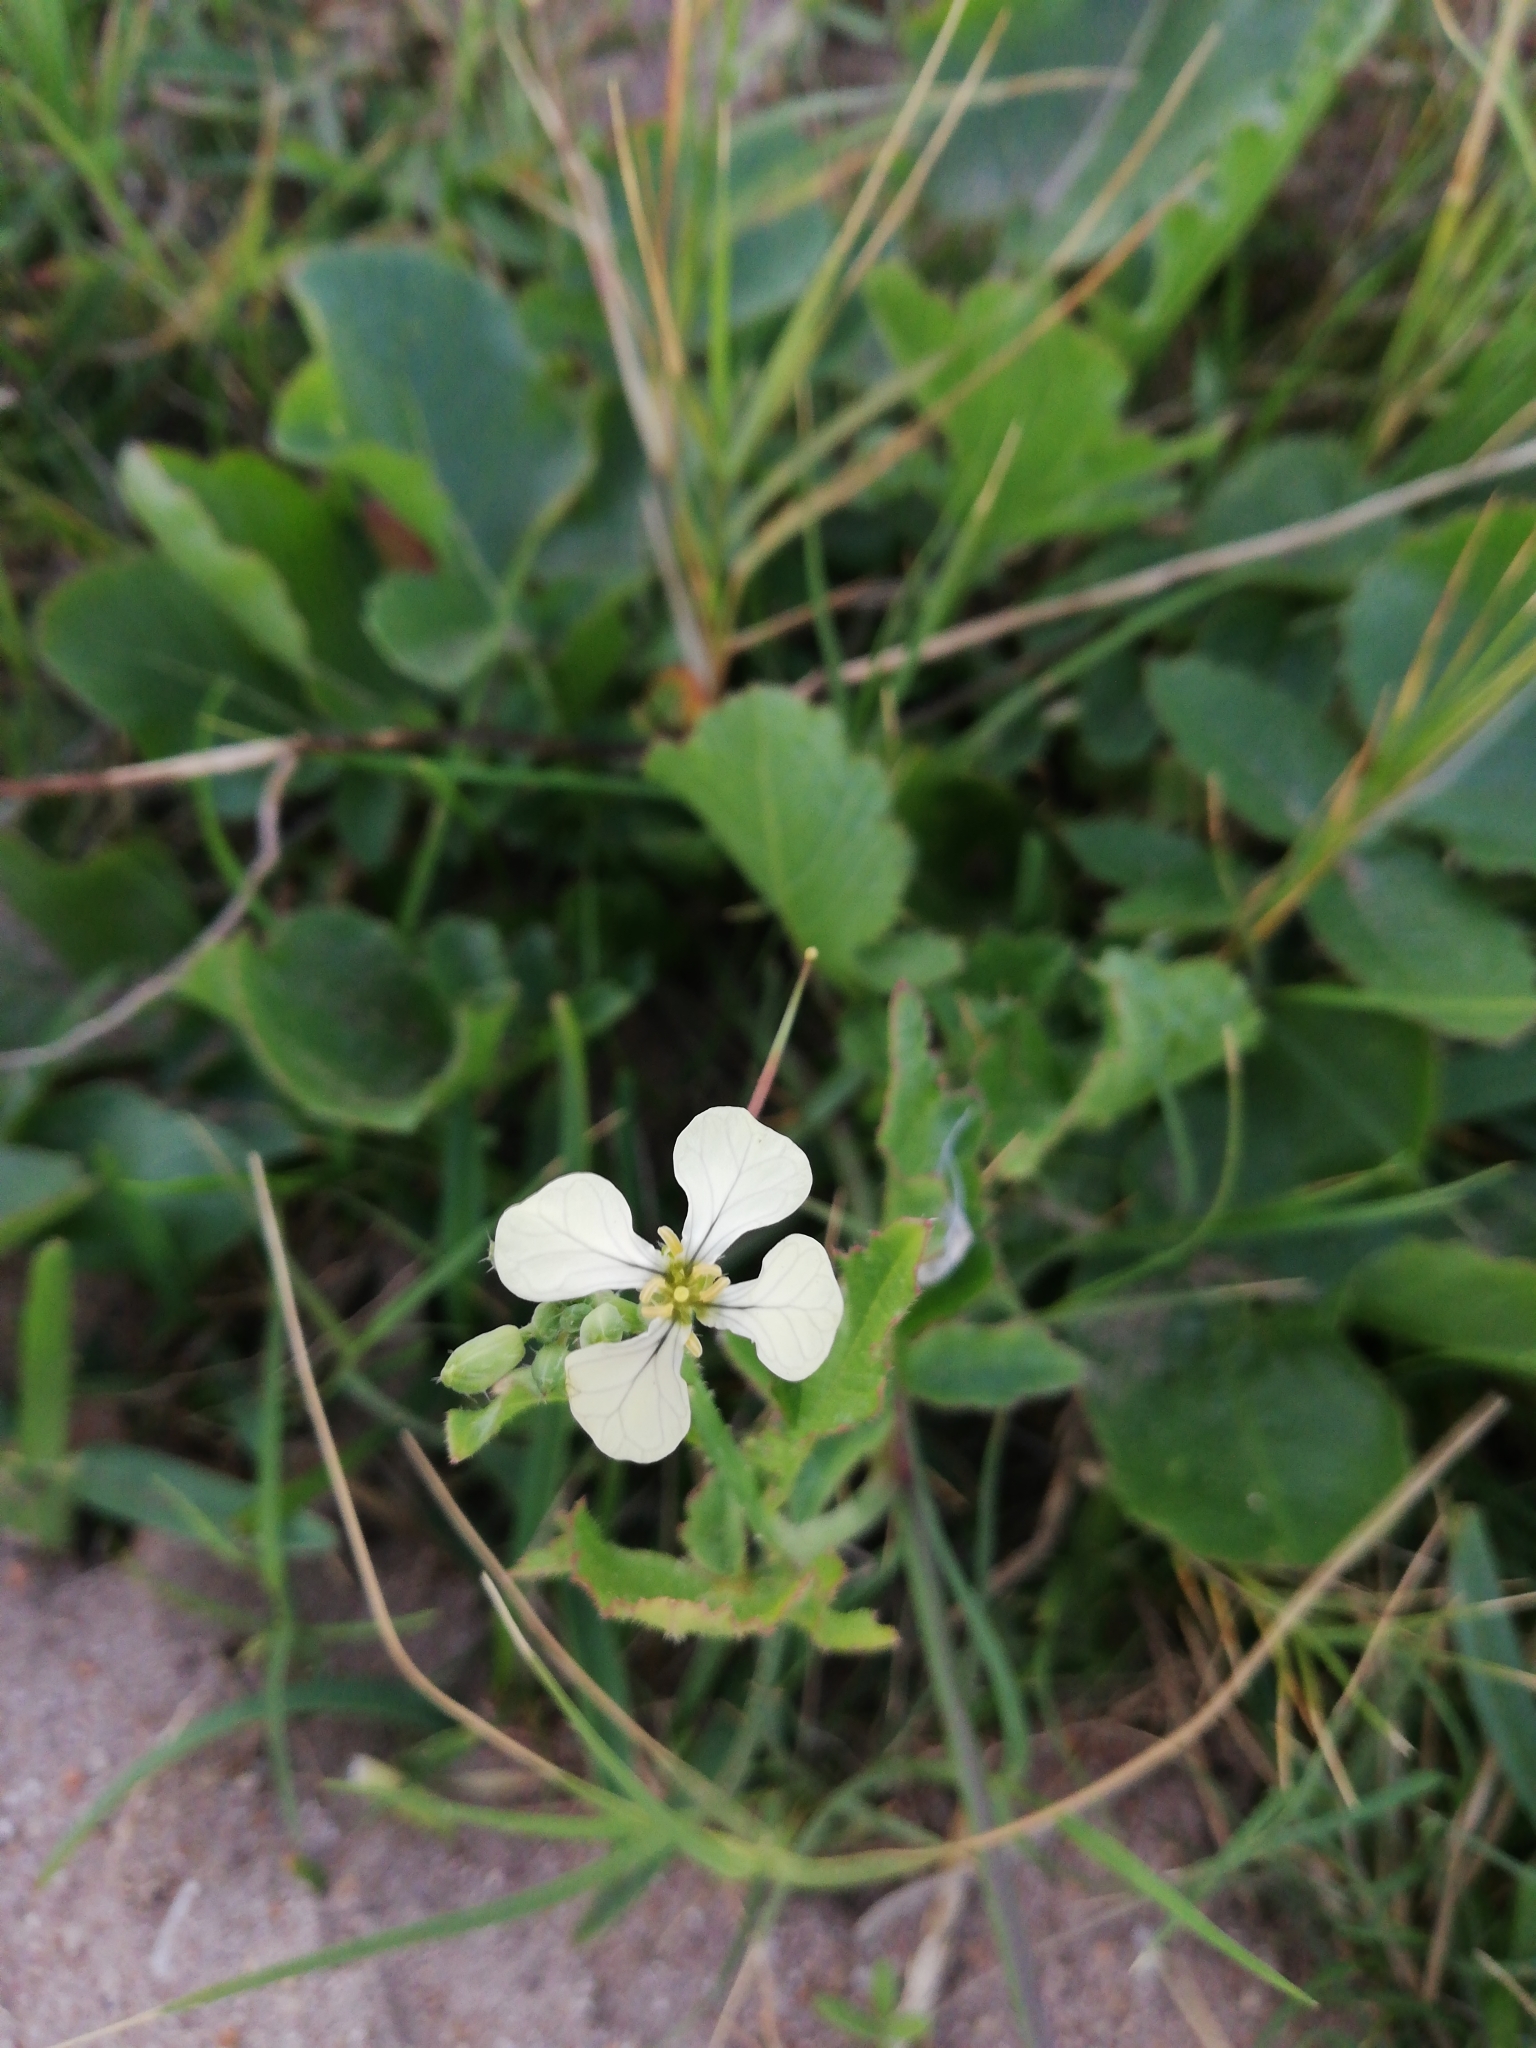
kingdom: Plantae
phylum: Tracheophyta
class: Magnoliopsida
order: Brassicales
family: Brassicaceae
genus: Raphanus
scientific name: Raphanus raphanistrum
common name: Wild radish
